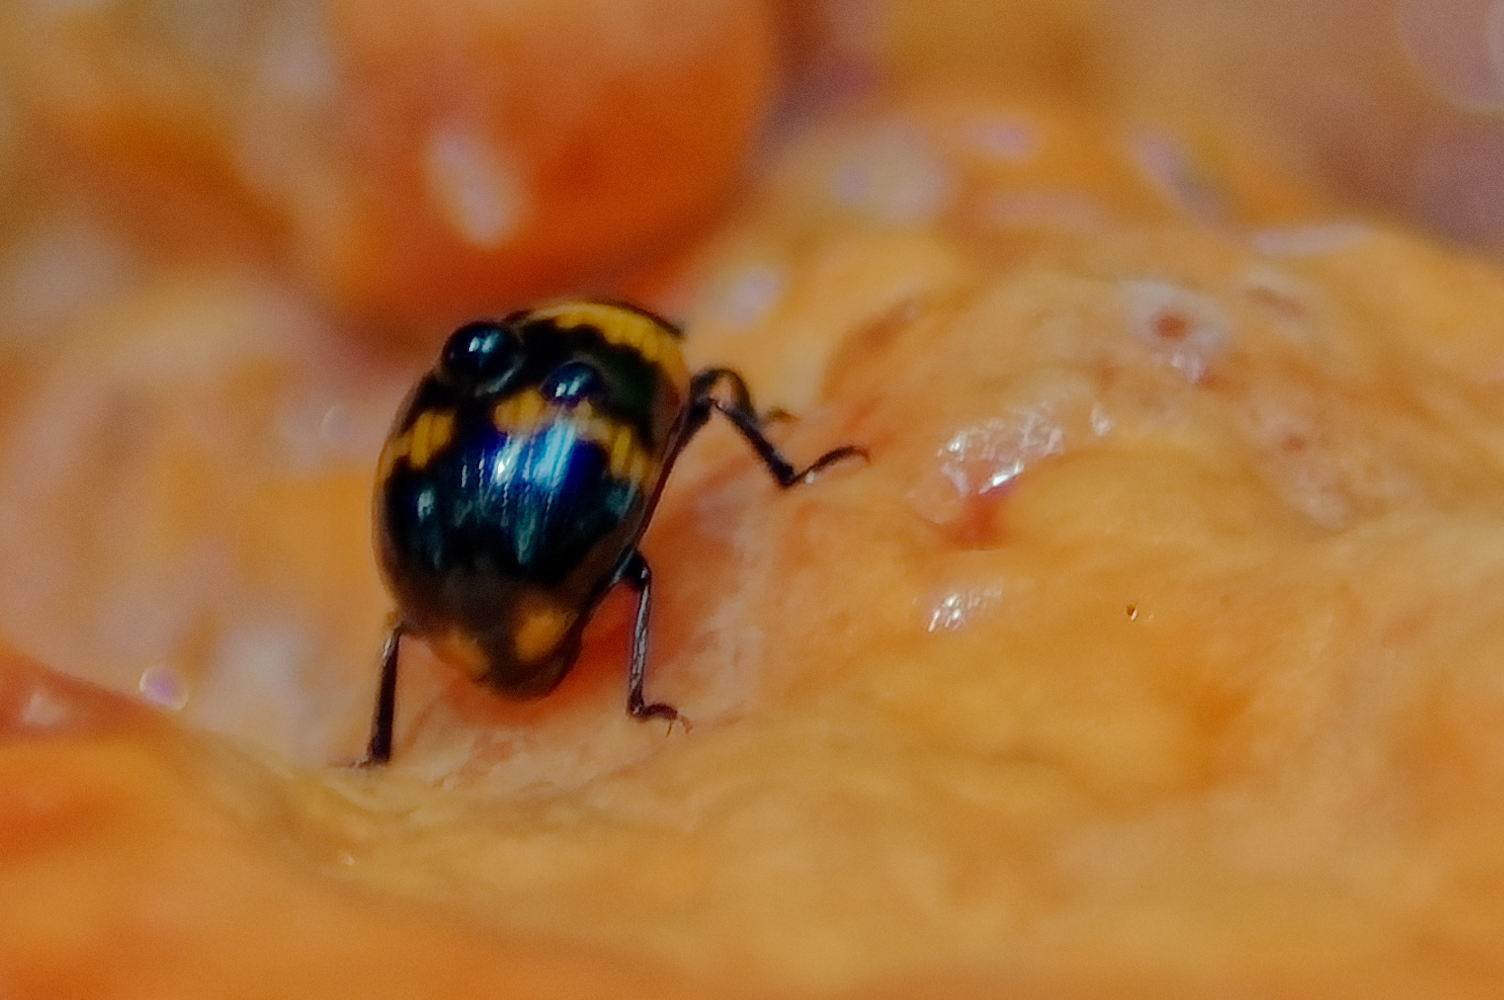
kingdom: Animalia
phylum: Arthropoda
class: Insecta
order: Coleoptera
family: Tenebrionidae
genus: Diaperis
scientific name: Diaperis boleti
